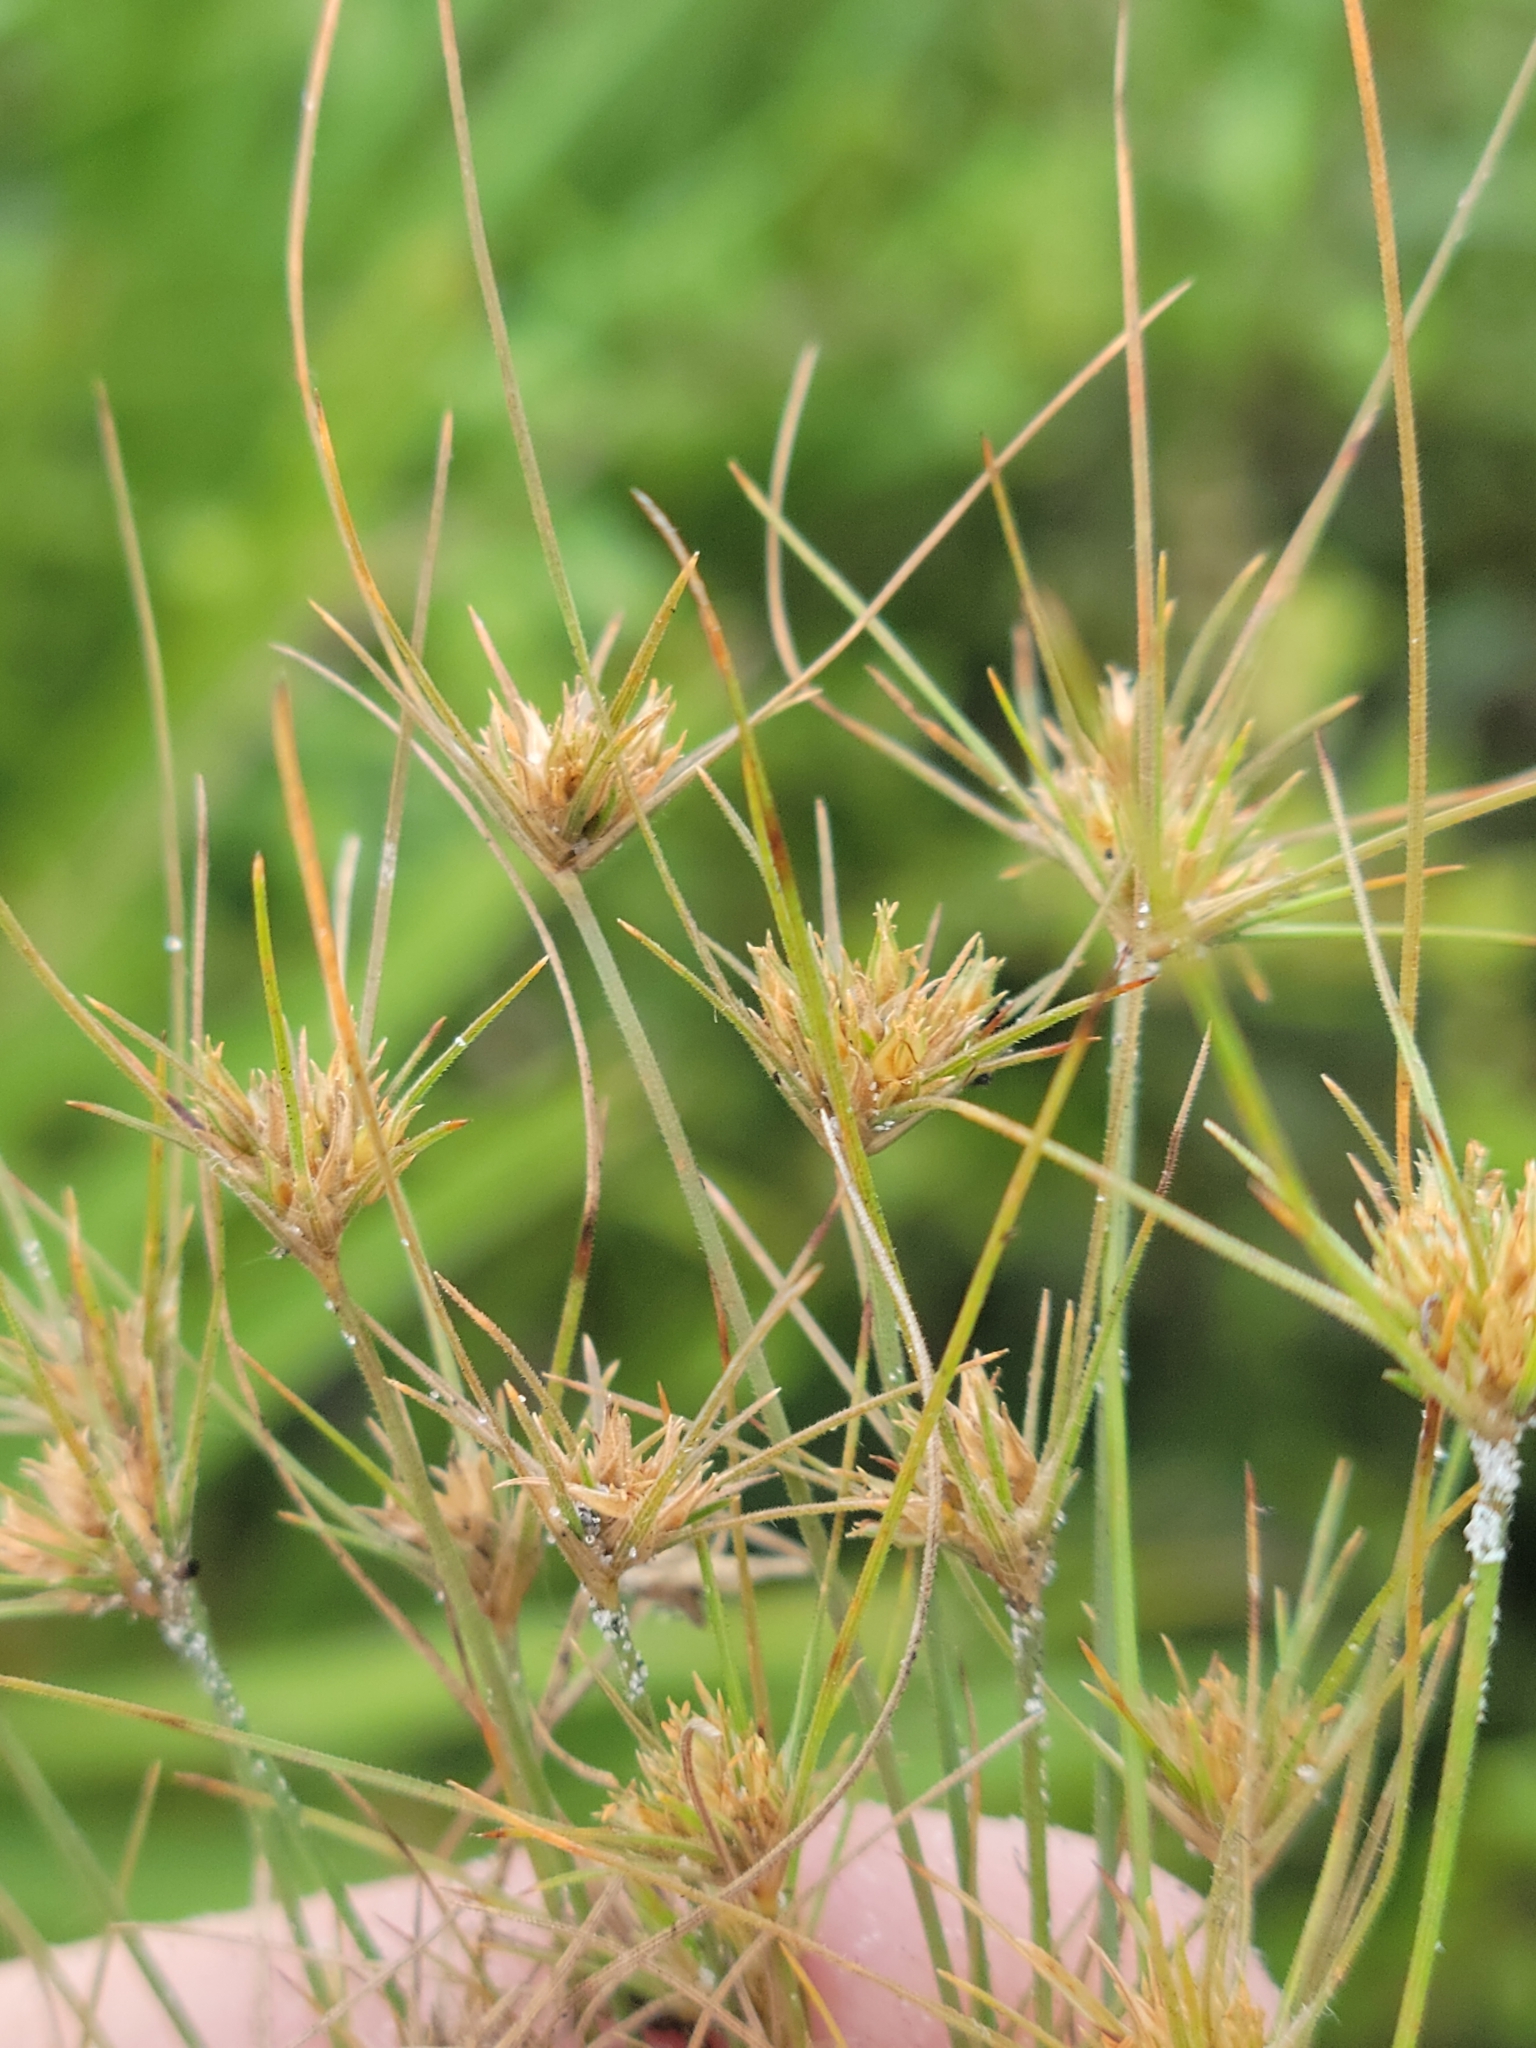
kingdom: Plantae
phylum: Tracheophyta
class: Liliopsida
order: Poales
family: Cyperaceae
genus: Bulbostylis
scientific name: Bulbostylis stenophylla
